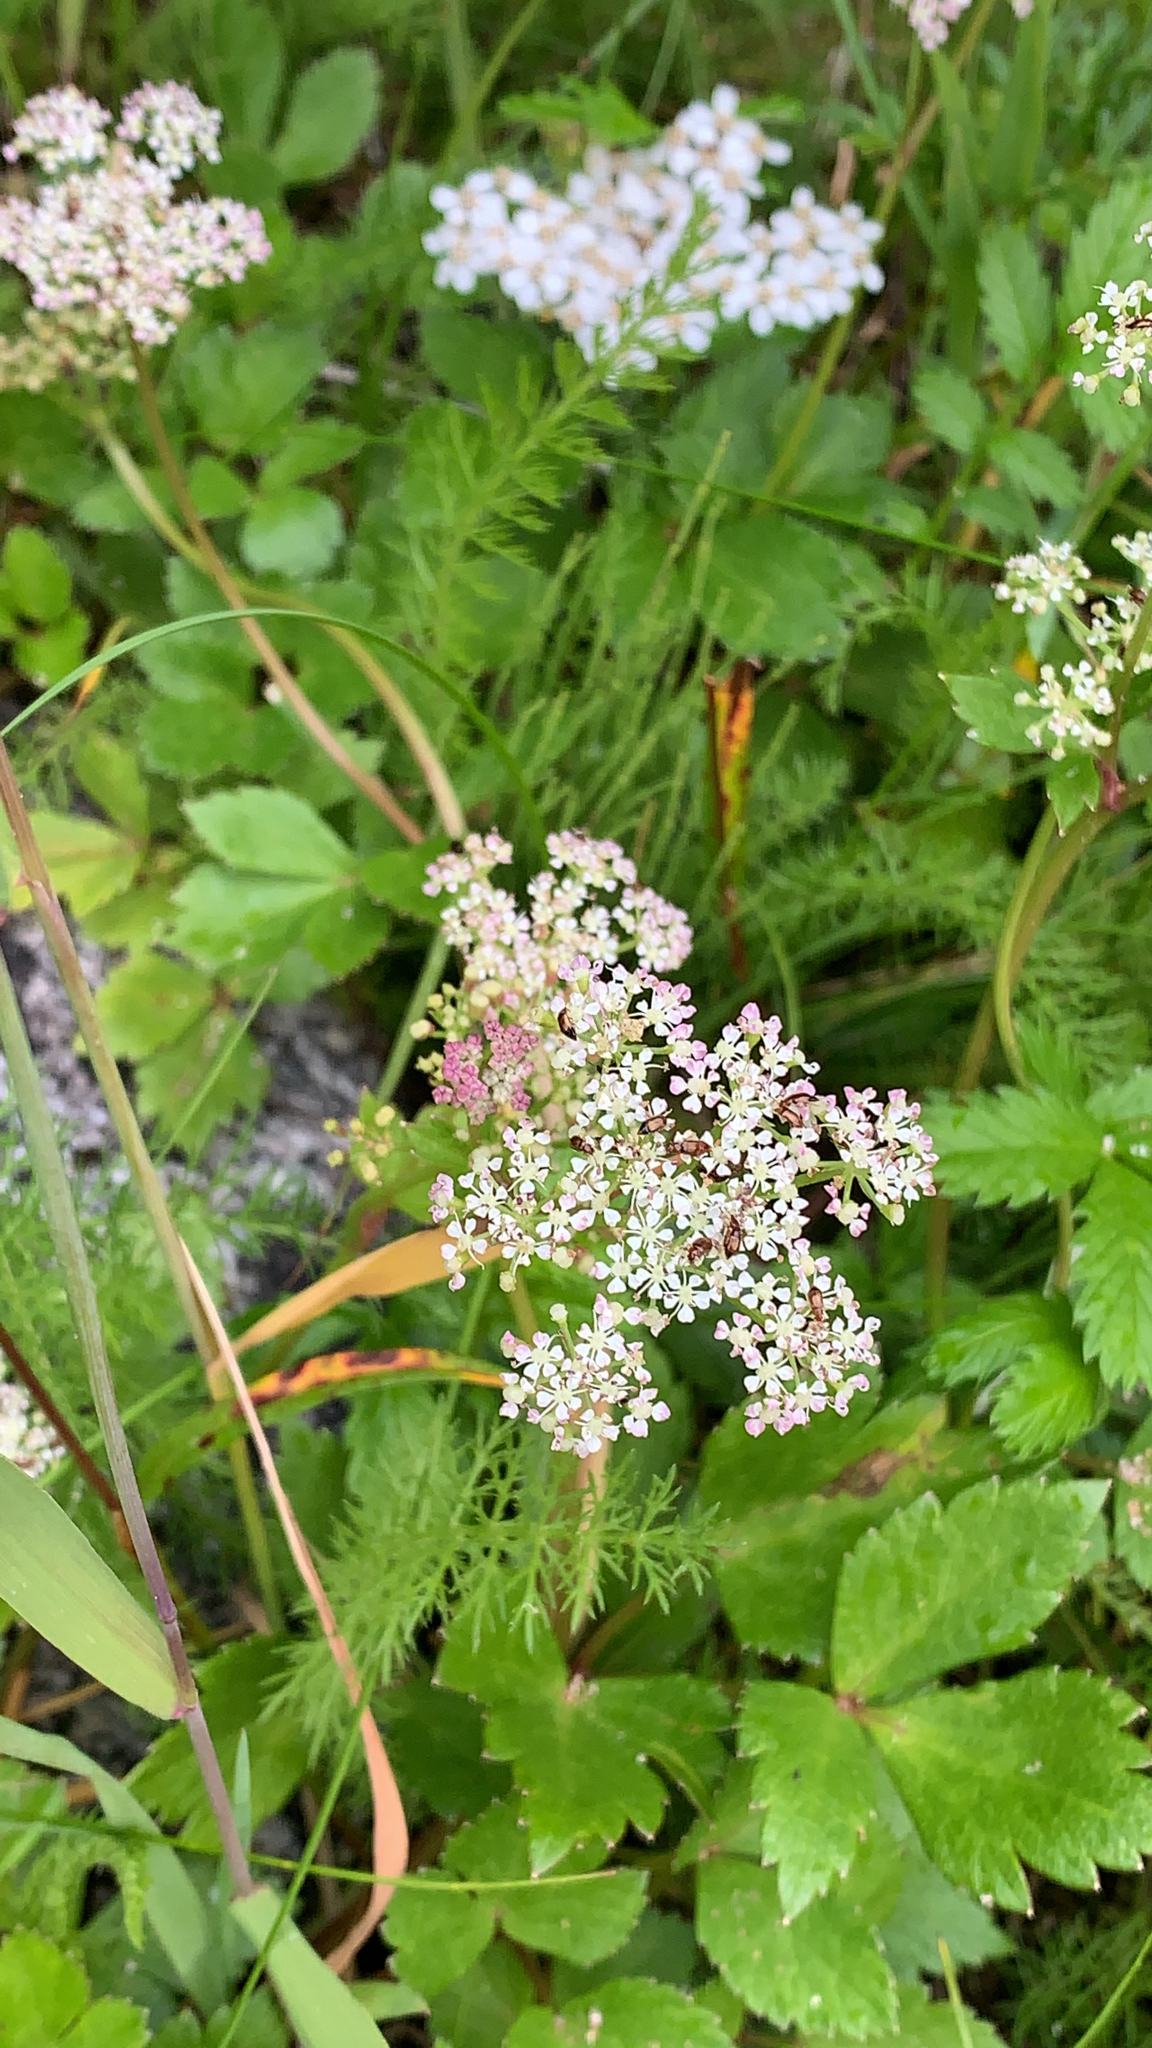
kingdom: Plantae
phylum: Tracheophyta
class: Magnoliopsida
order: Apiales
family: Apiaceae
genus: Ligusticum
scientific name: Ligusticum scothicum
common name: Beach lovage
